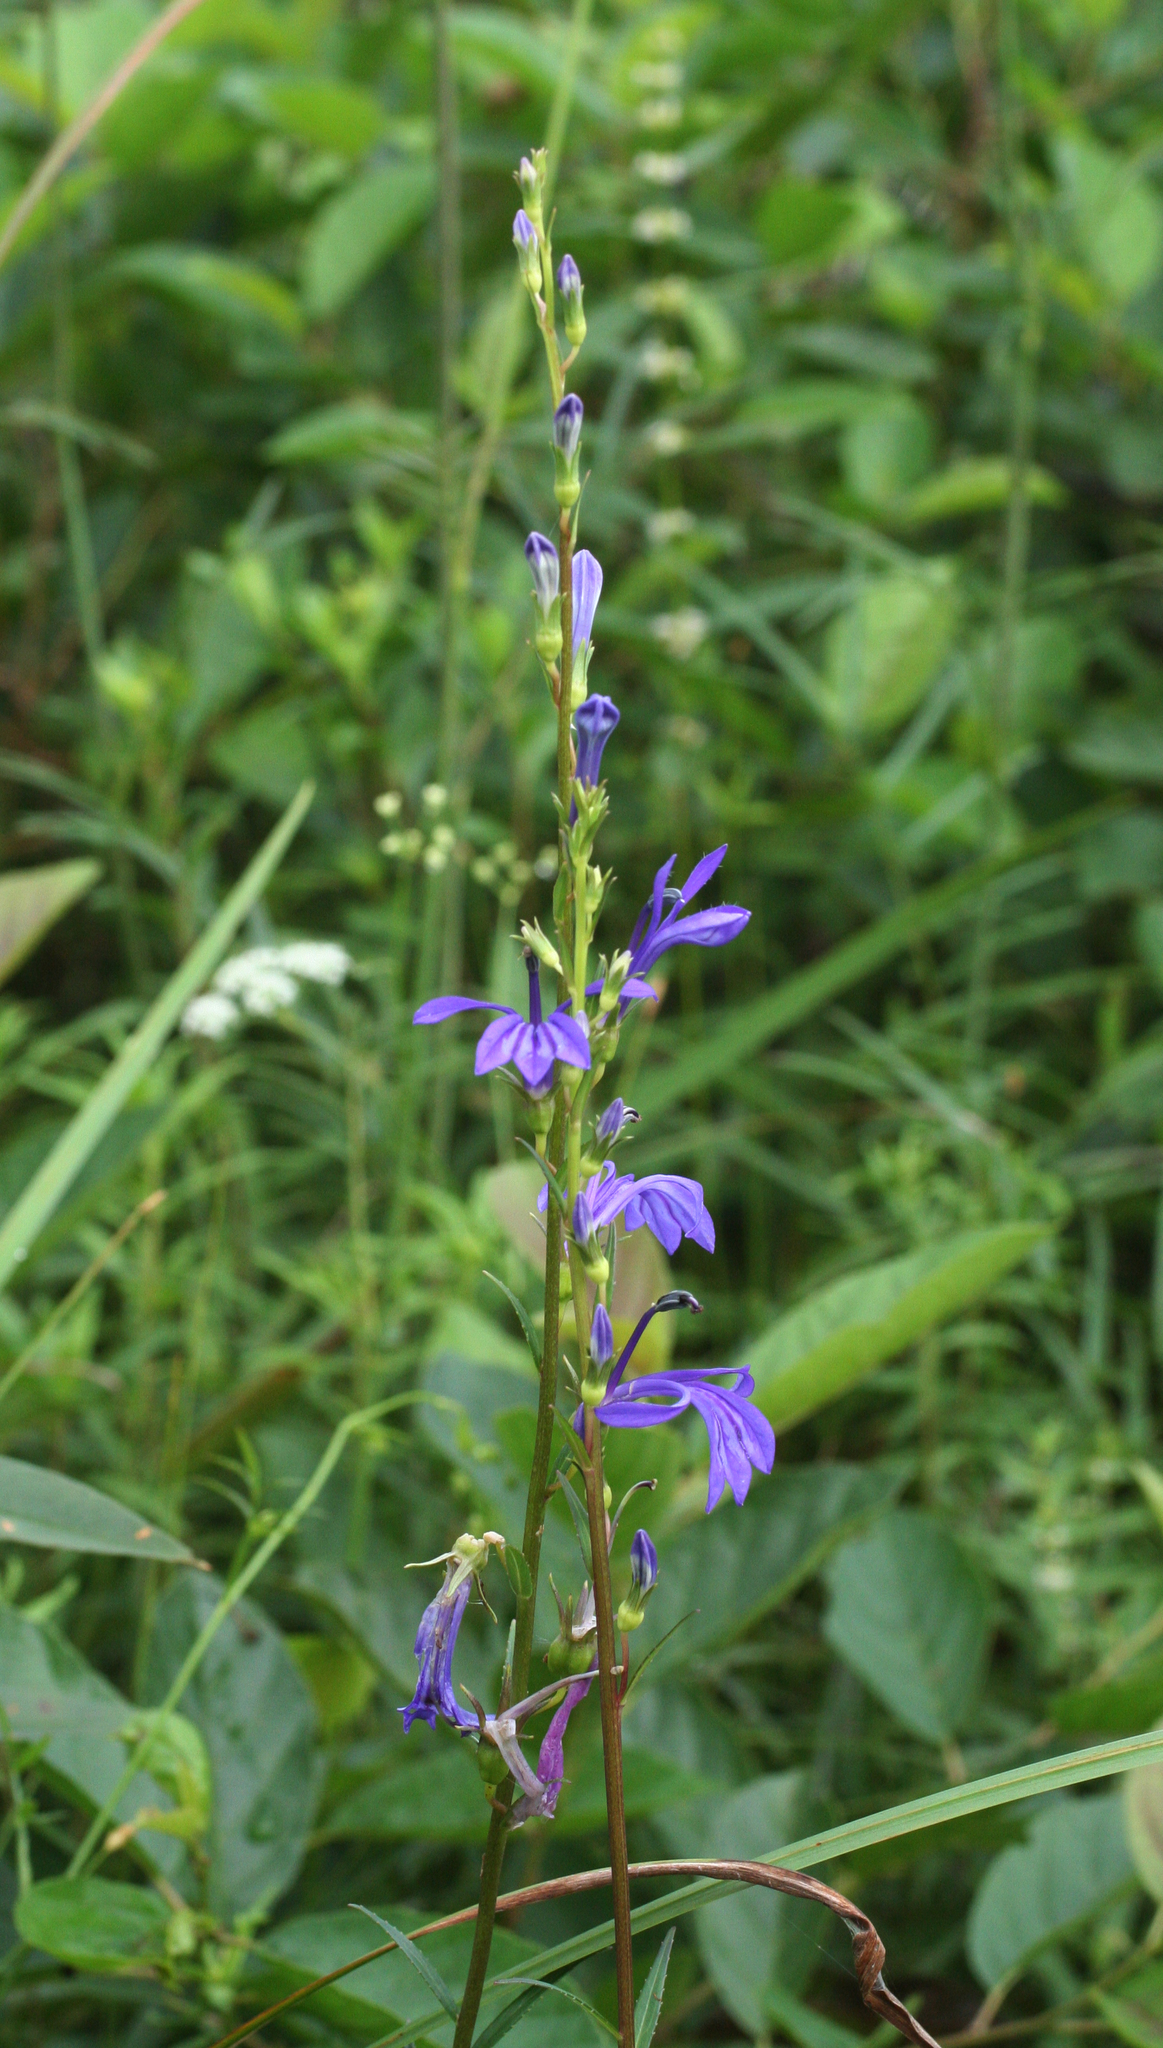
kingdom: Plantae
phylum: Tracheophyta
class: Magnoliopsida
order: Asterales
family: Campanulaceae
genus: Lobelia
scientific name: Lobelia sessilifolia
